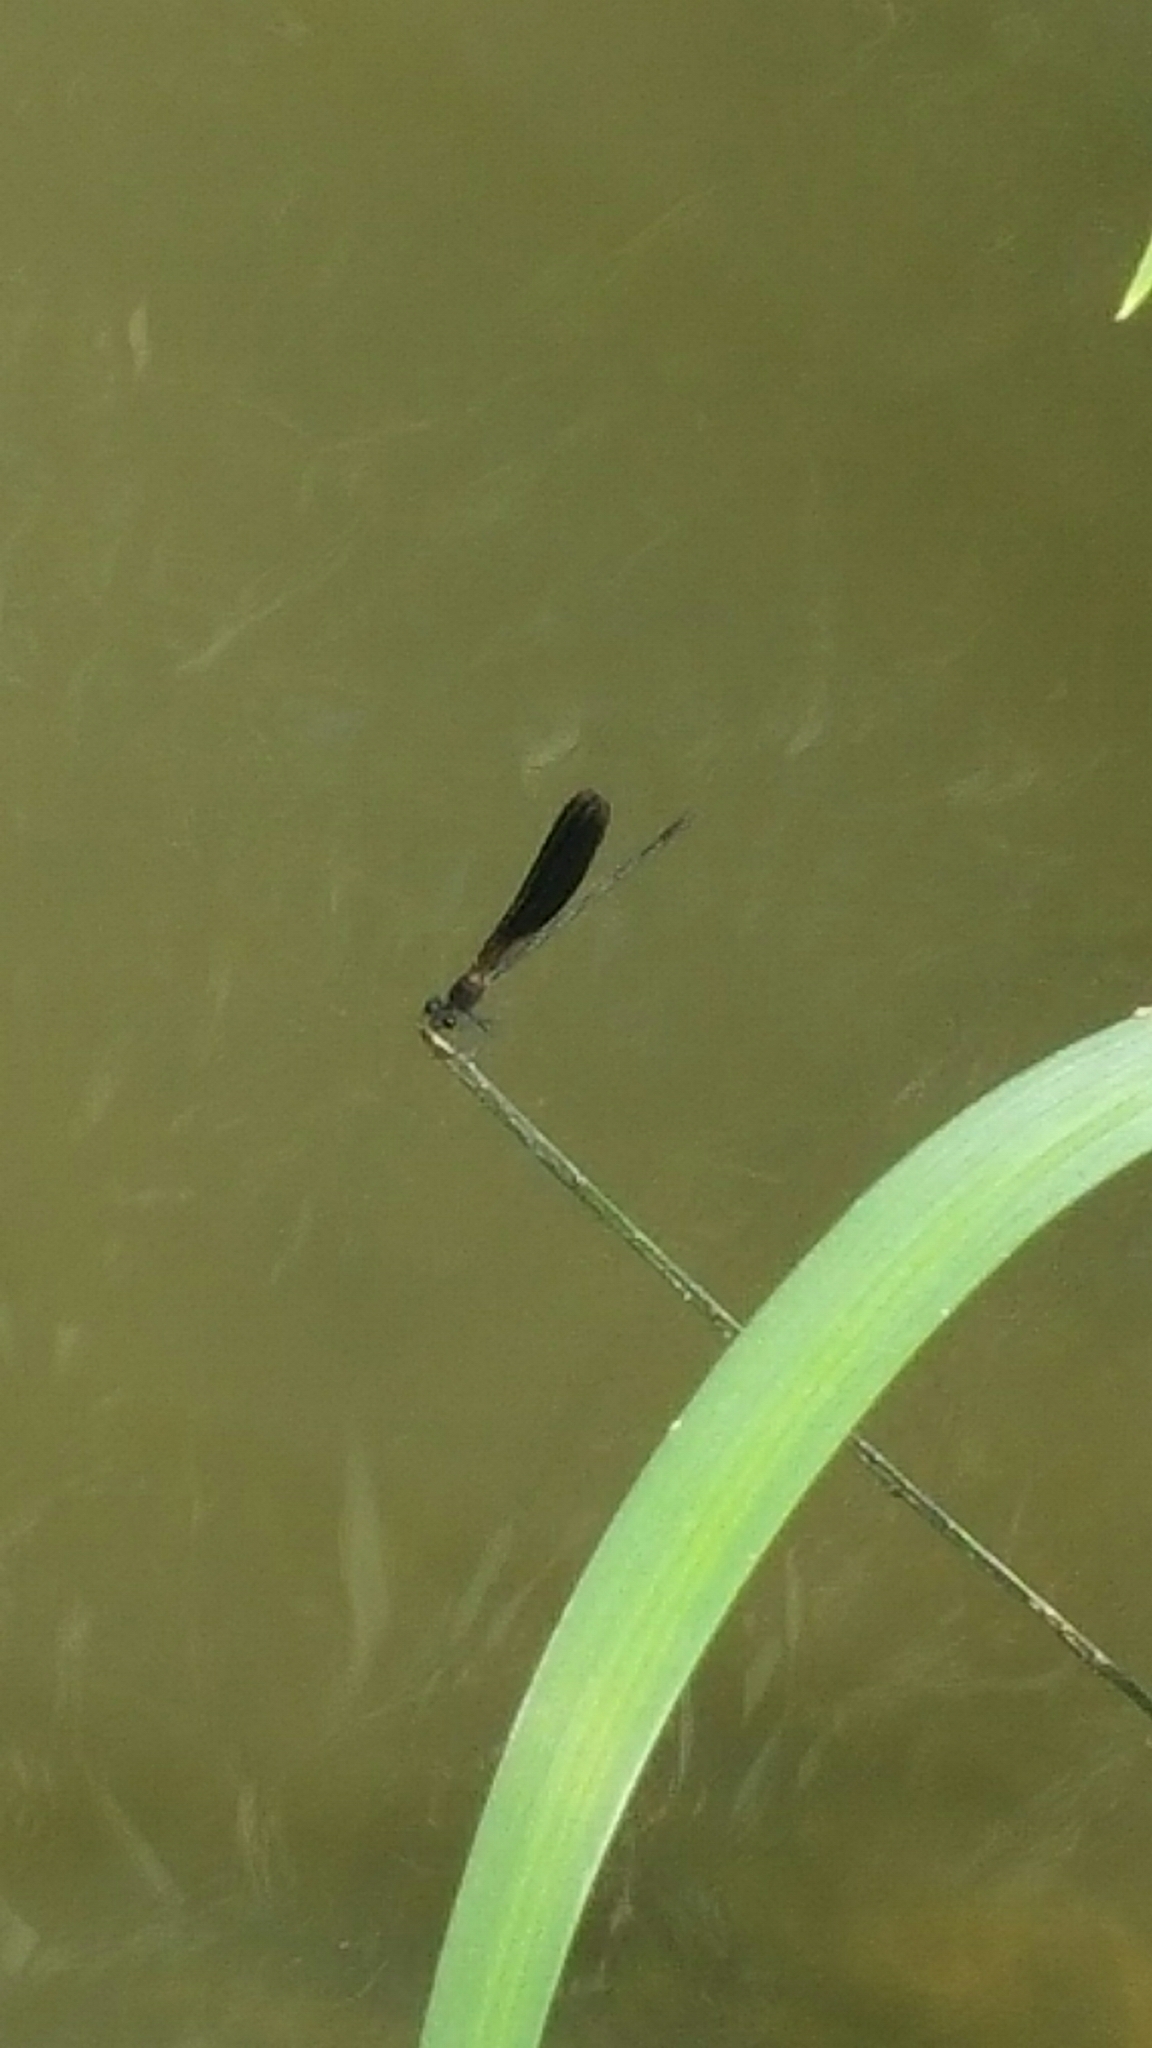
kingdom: Animalia
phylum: Arthropoda
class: Insecta
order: Odonata
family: Calopterygidae
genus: Calopteryx
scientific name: Calopteryx haemorrhoidalis
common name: Copper demoiselle
